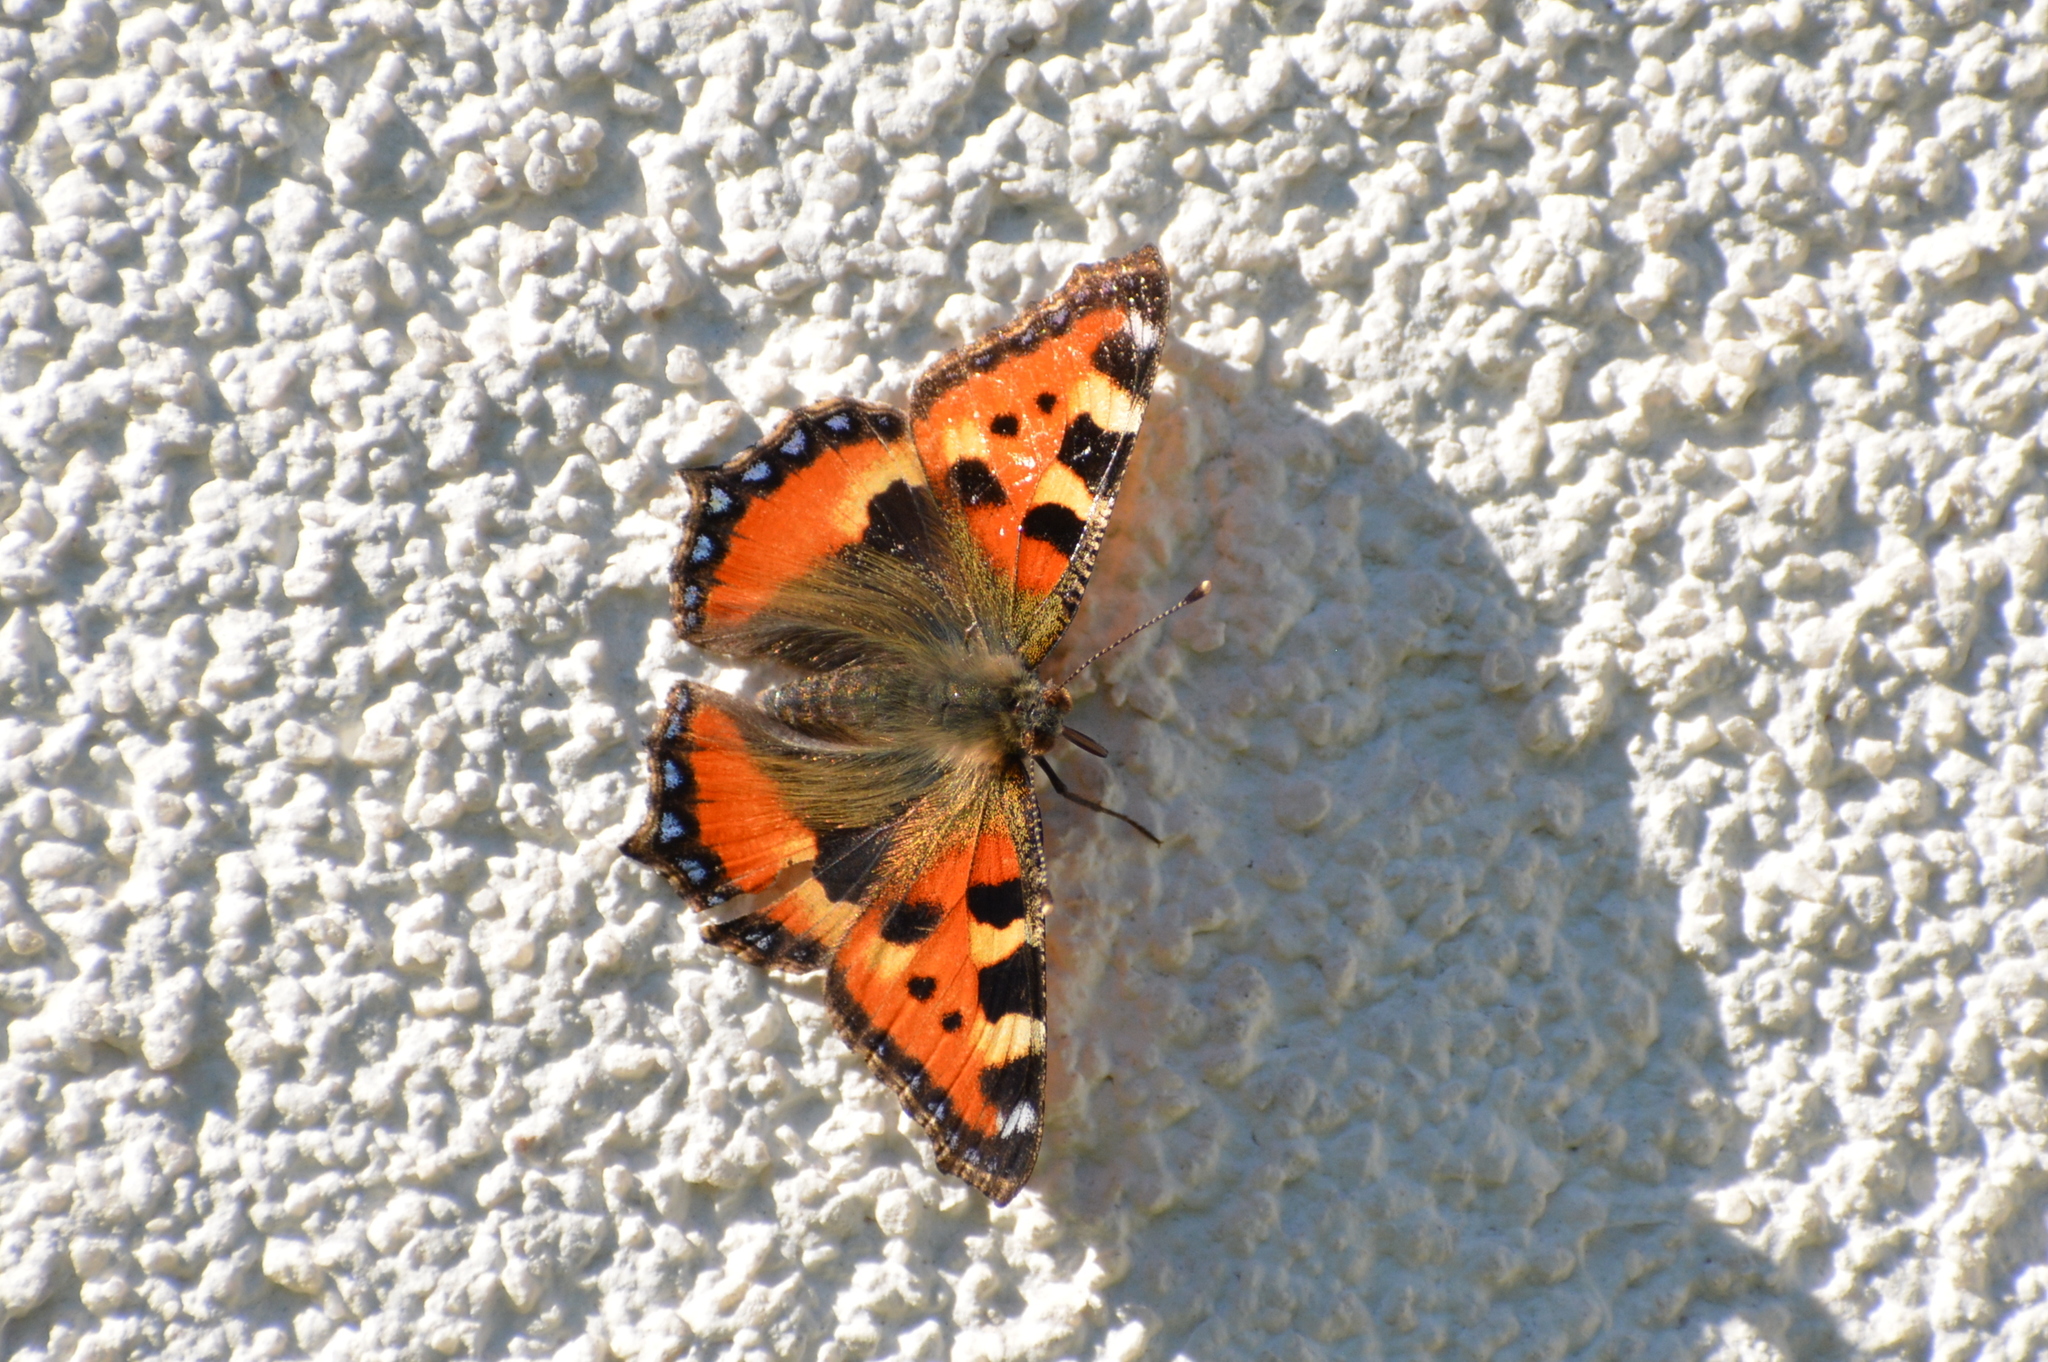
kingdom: Animalia
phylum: Arthropoda
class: Insecta
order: Lepidoptera
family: Nymphalidae
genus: Aglais
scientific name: Aglais urticae
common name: Small tortoiseshell
